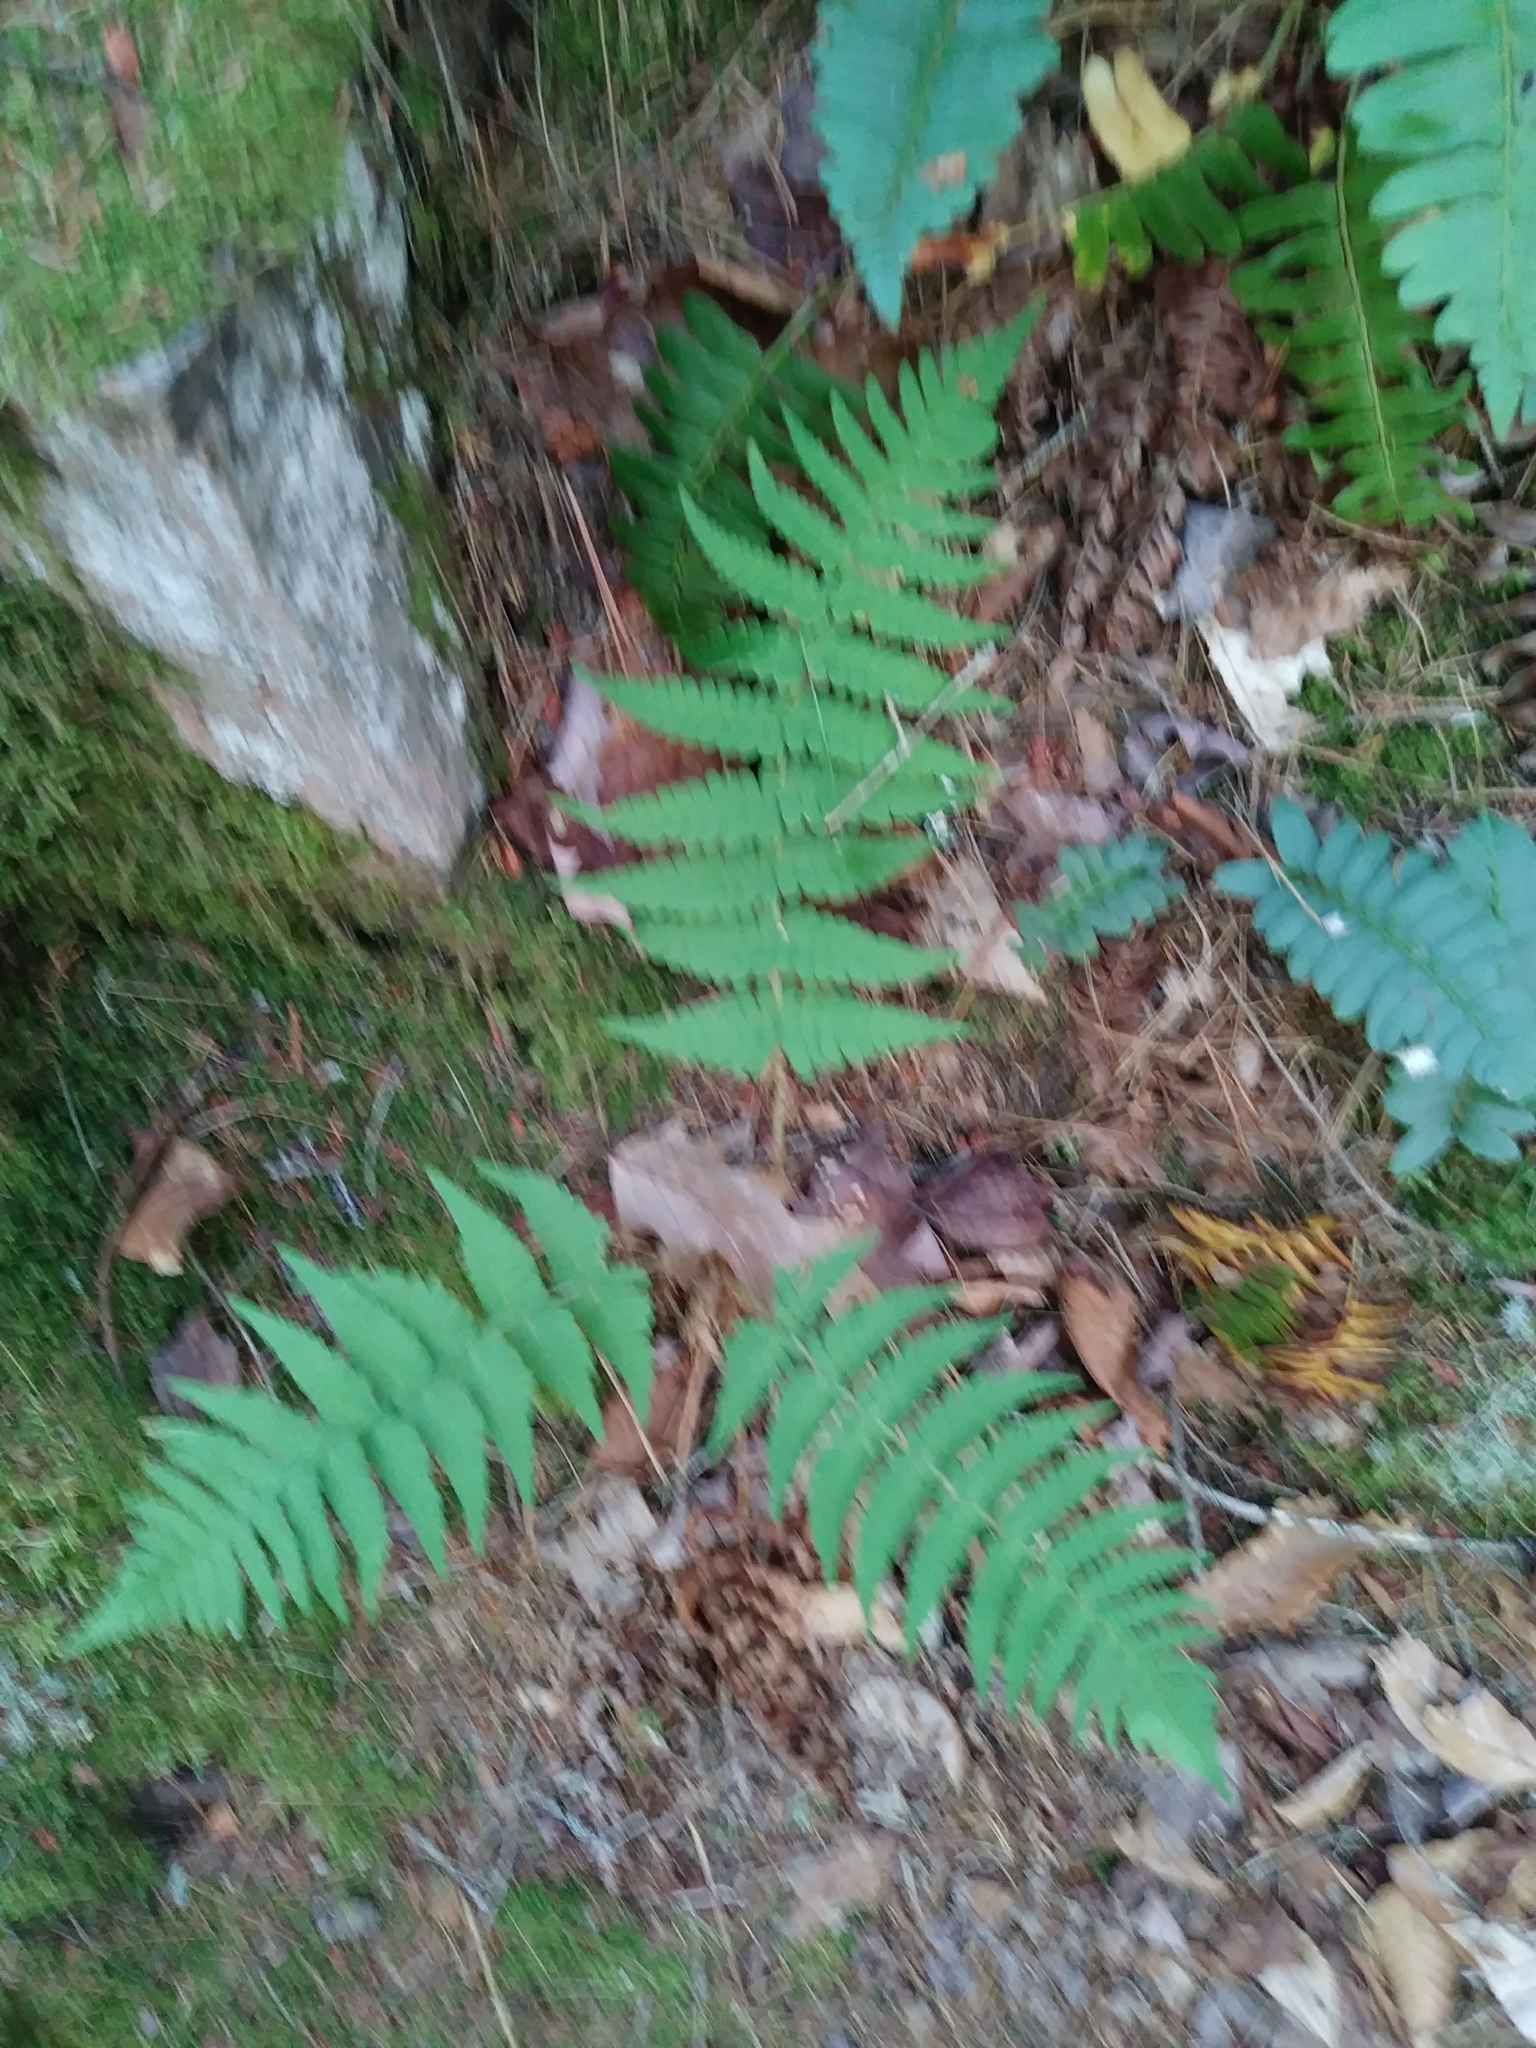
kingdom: Plantae
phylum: Tracheophyta
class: Polypodiopsida
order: Polypodiales
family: Dryopteridaceae
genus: Dryopteris
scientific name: Dryopteris marginalis
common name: Marginal wood fern
